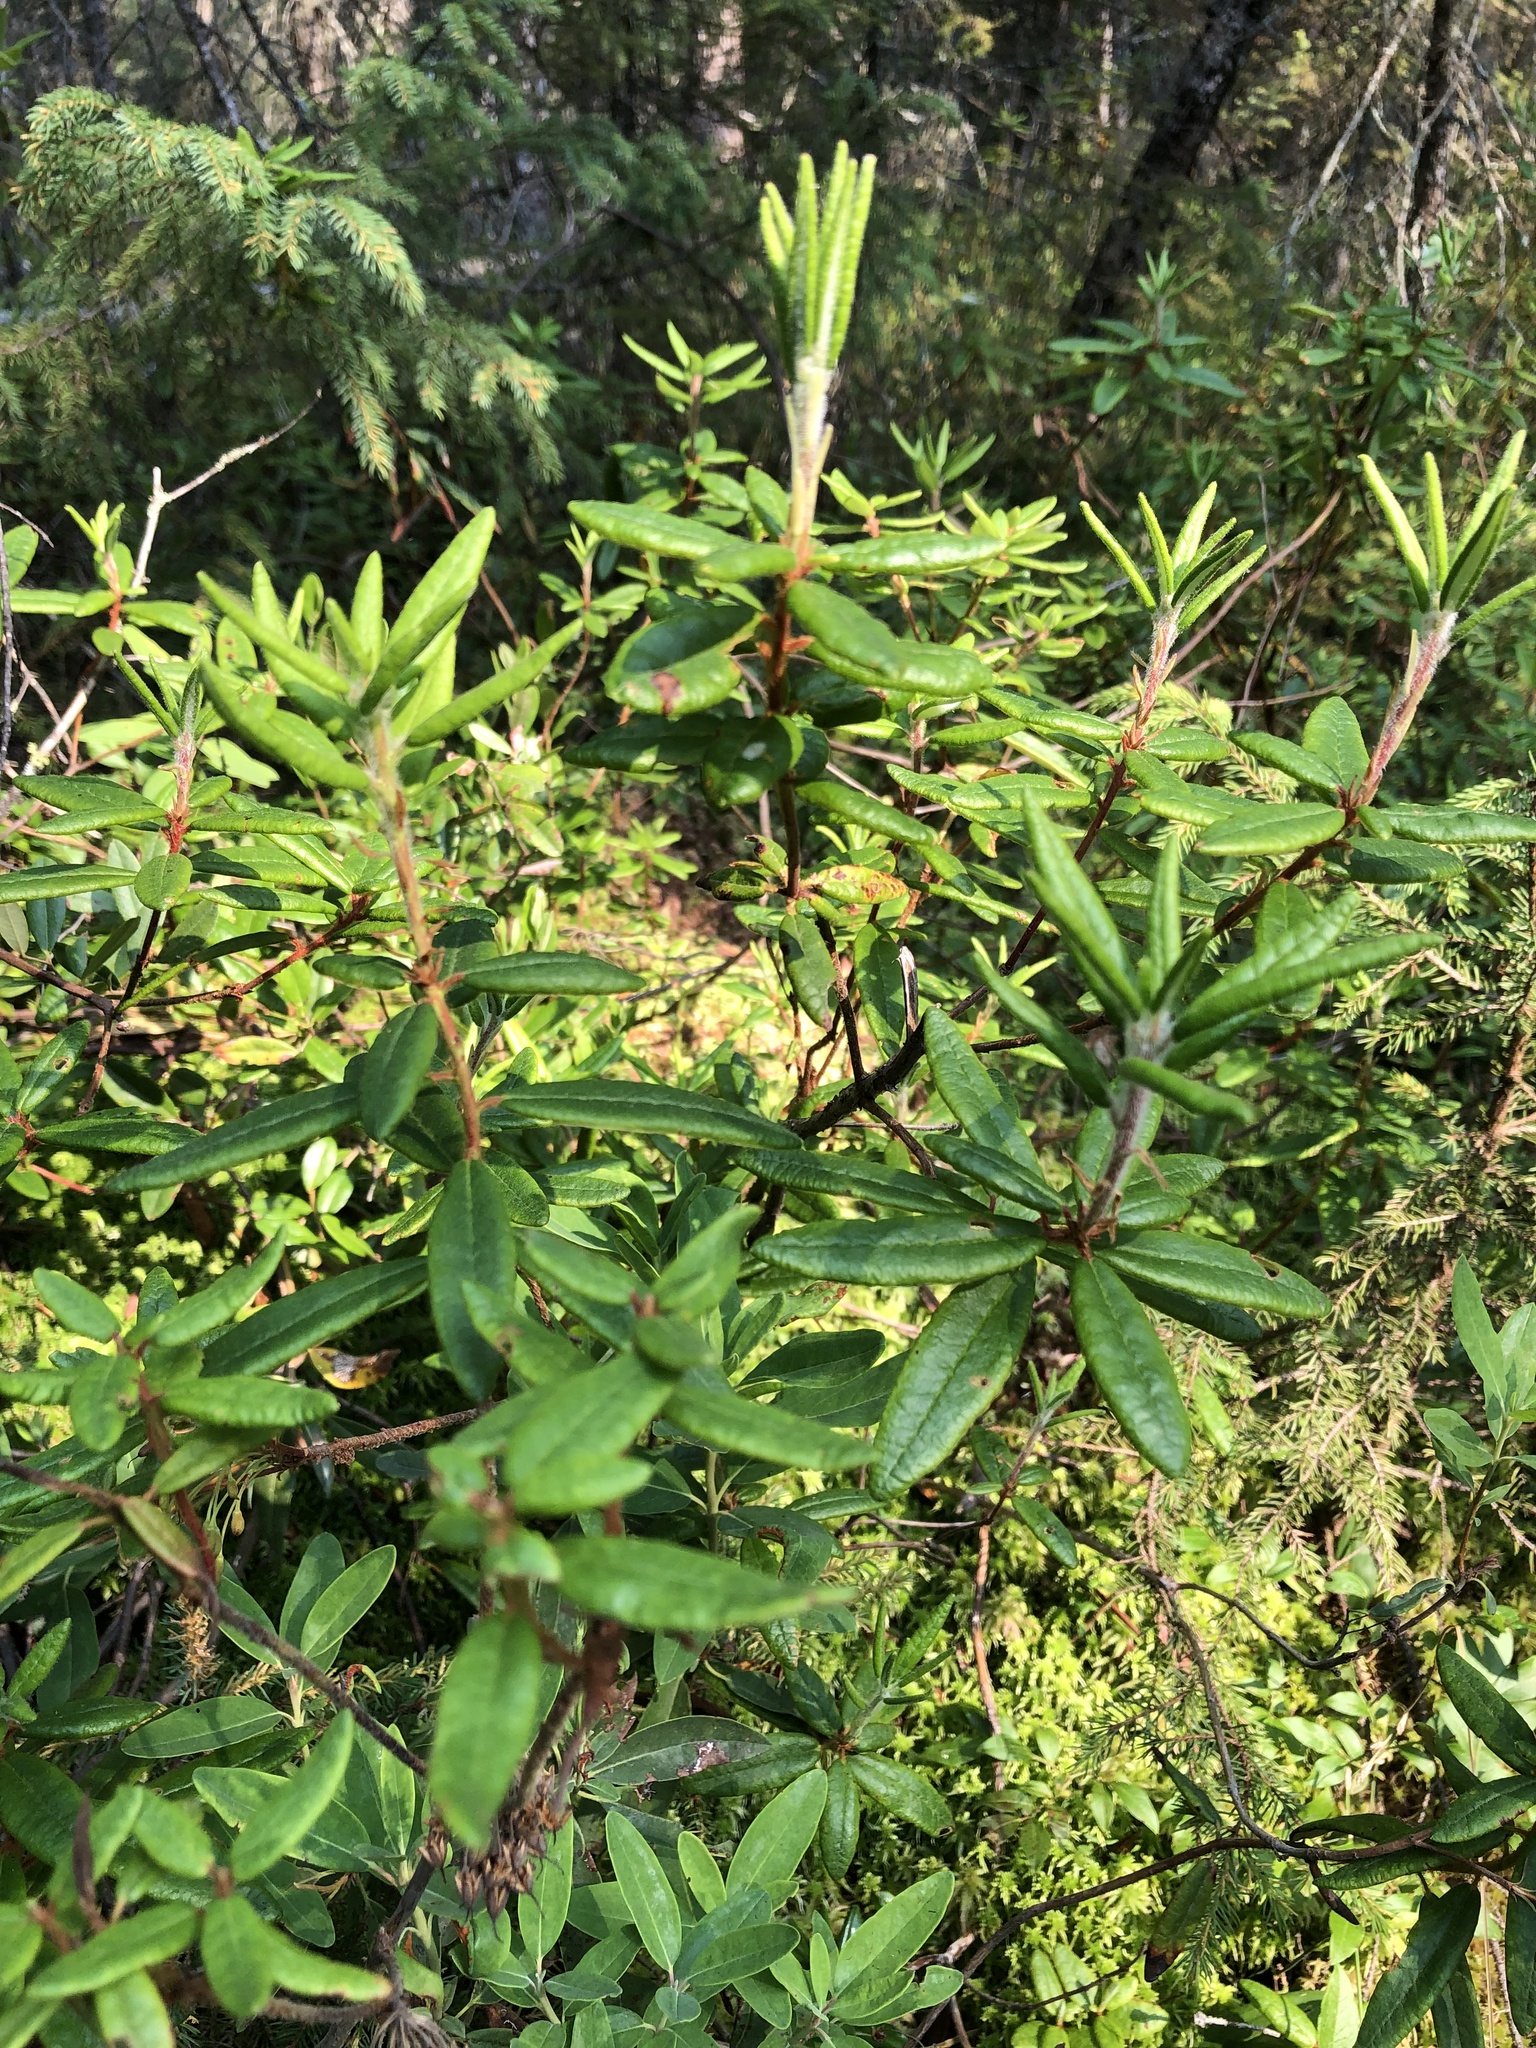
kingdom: Plantae
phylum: Tracheophyta
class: Magnoliopsida
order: Ericales
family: Ericaceae
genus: Rhododendron
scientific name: Rhododendron groenlandicum
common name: Bog labrador tea
